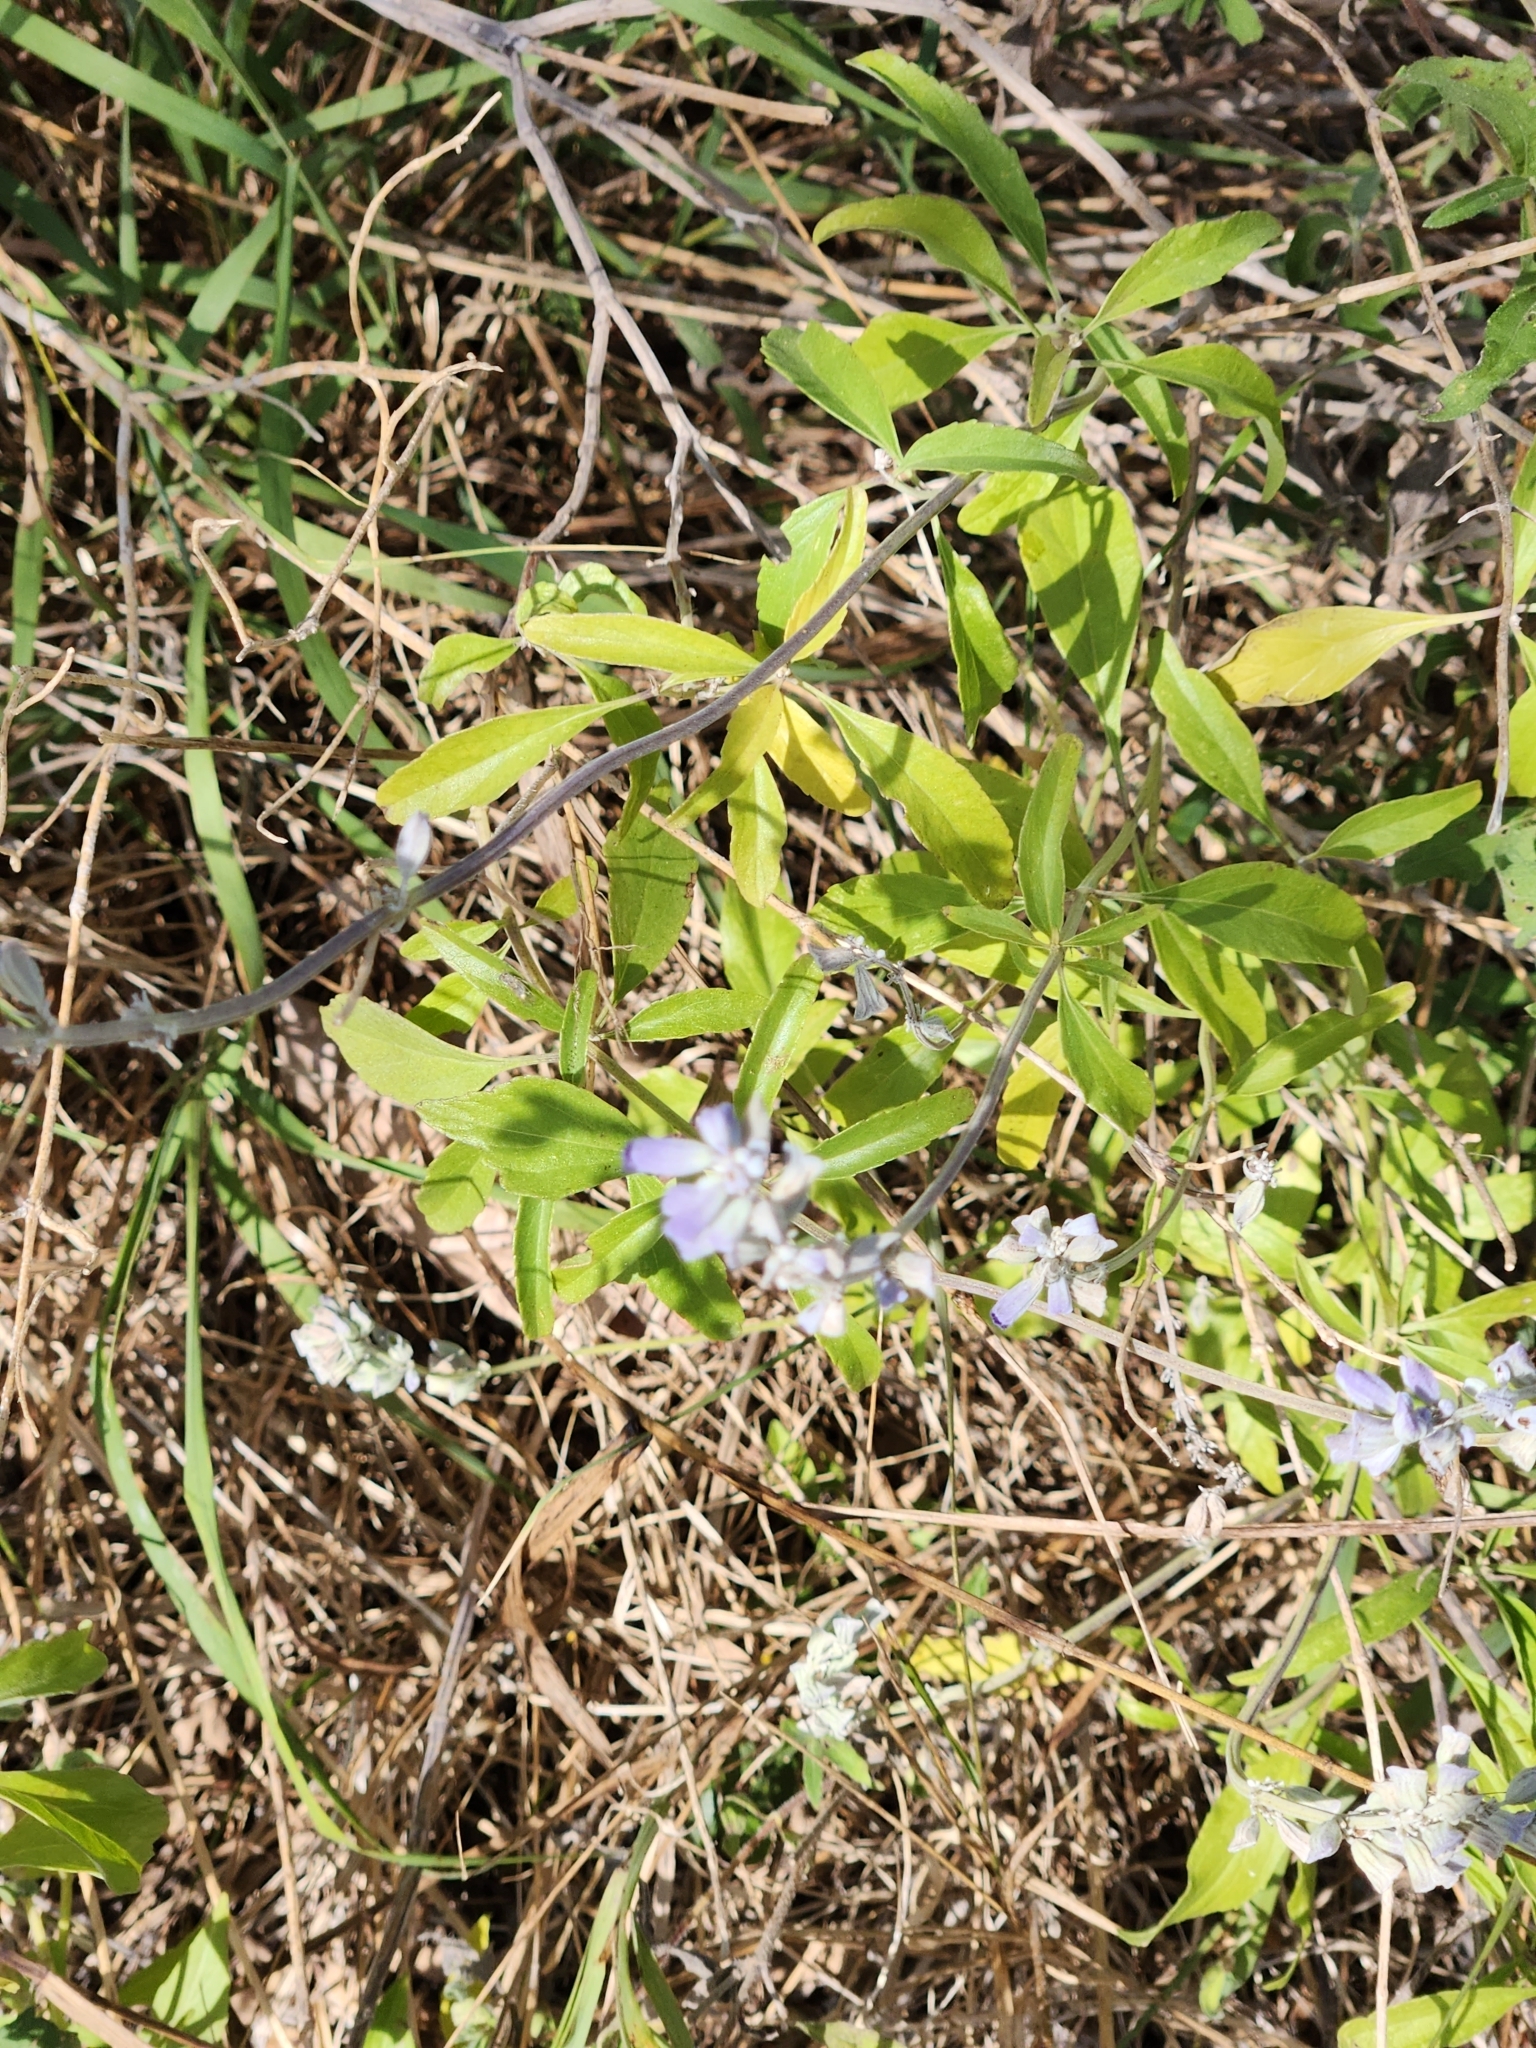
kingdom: Plantae
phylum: Tracheophyta
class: Magnoliopsida
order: Lamiales
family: Lamiaceae
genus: Salvia
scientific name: Salvia farinacea
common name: Mealy sage
